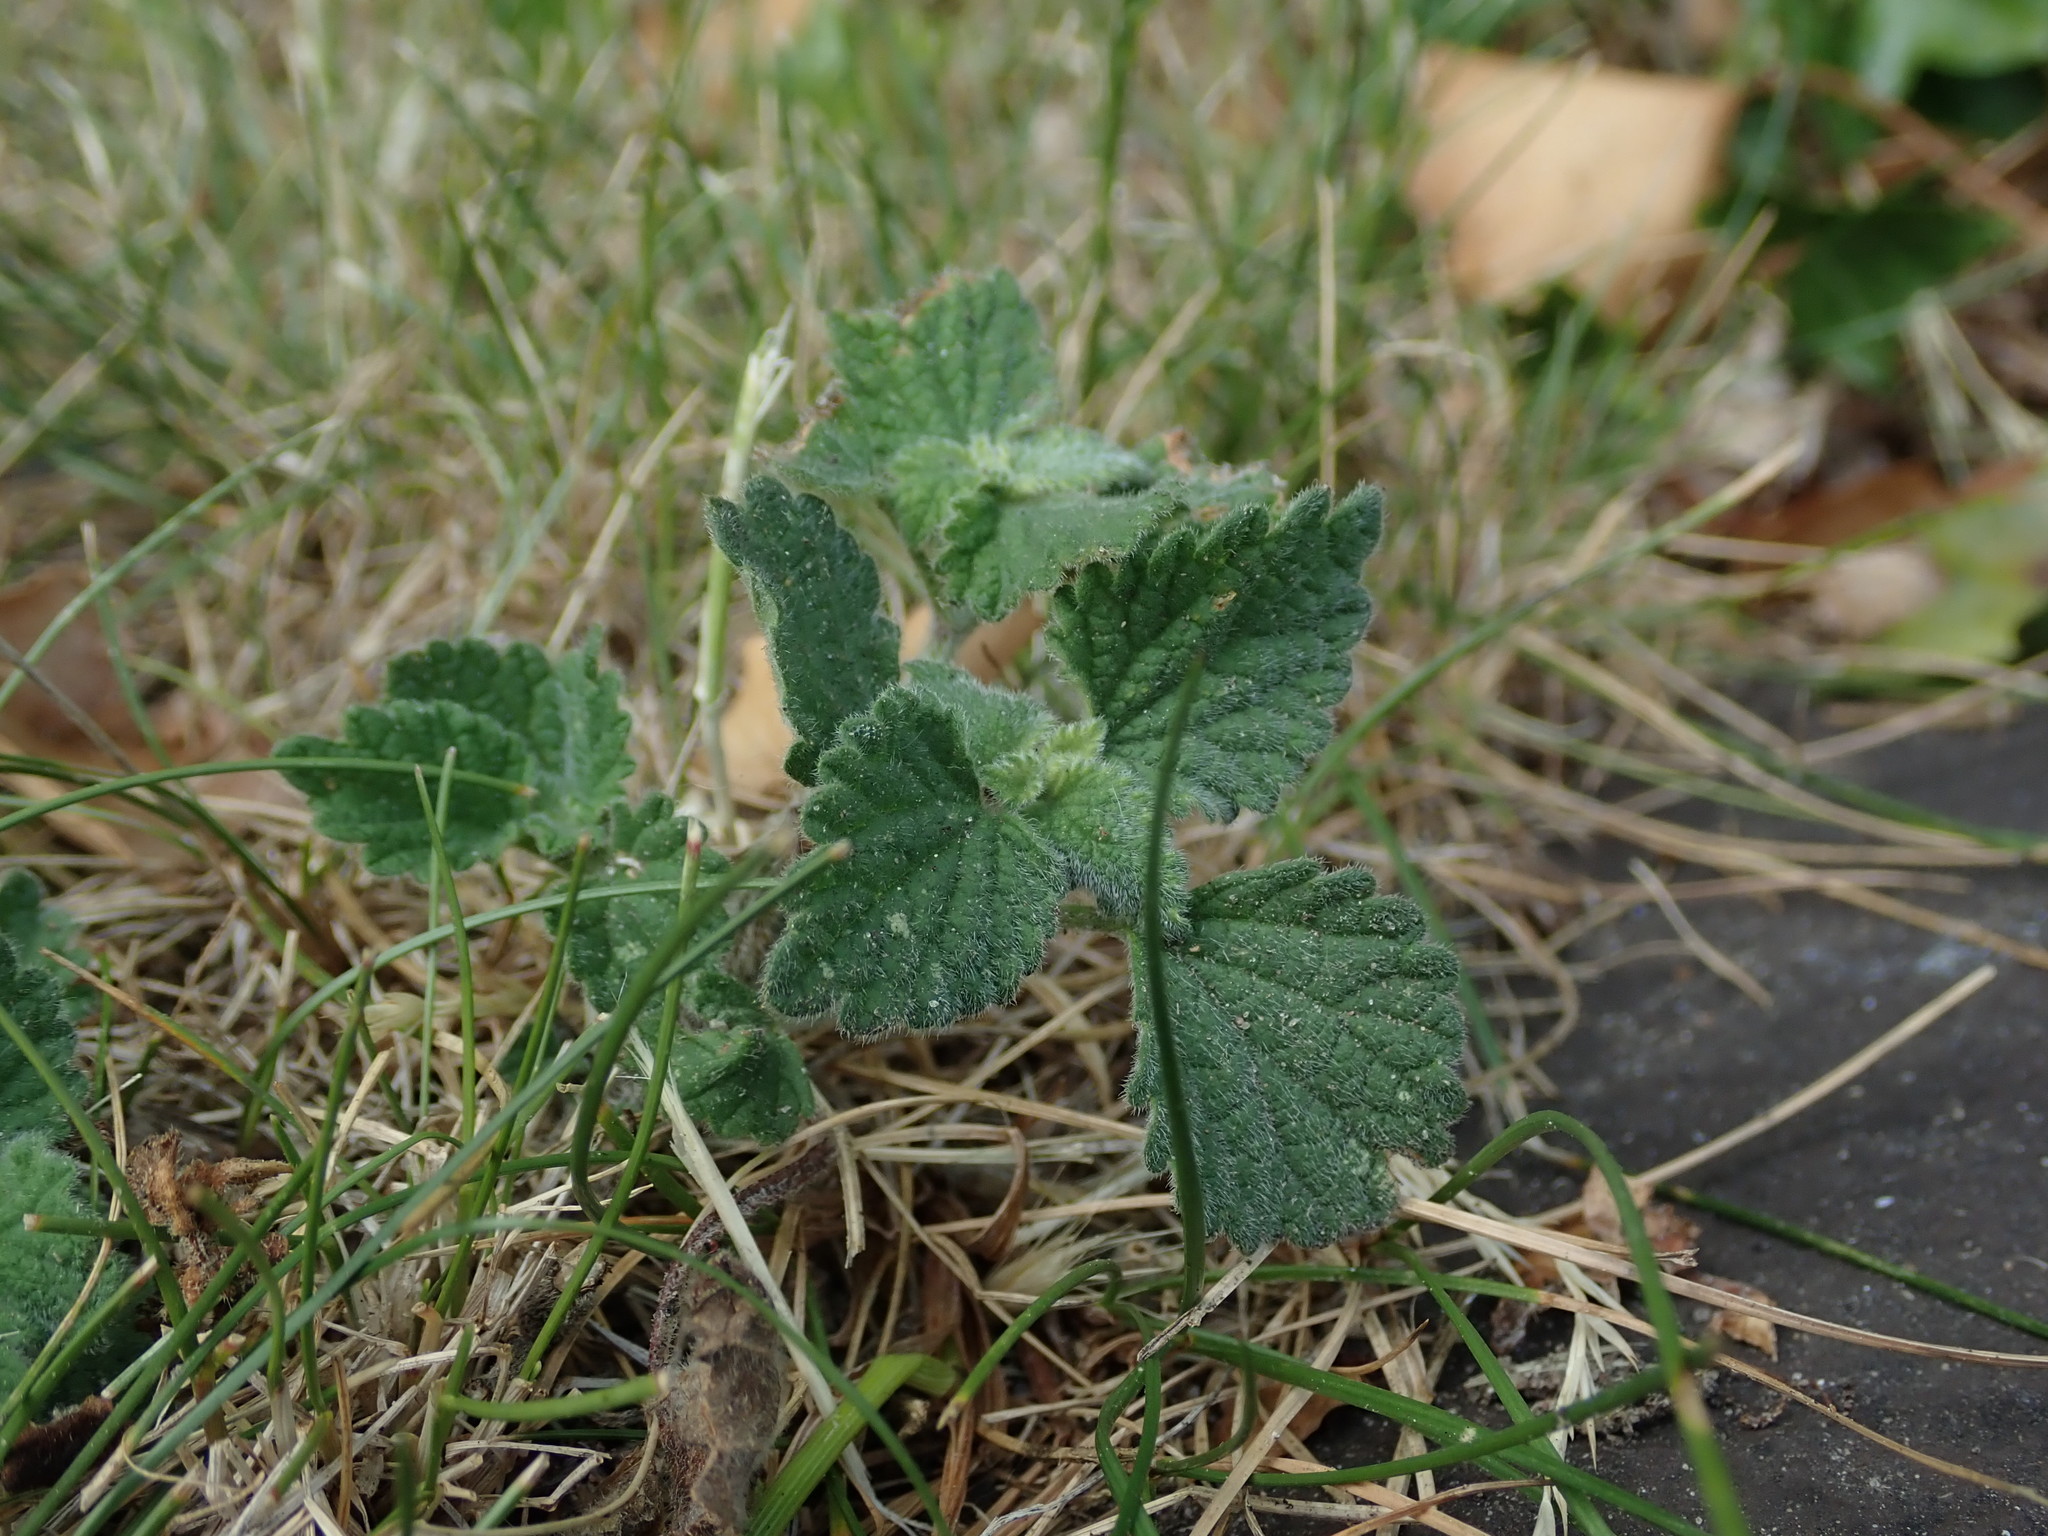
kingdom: Plantae
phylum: Tracheophyta
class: Magnoliopsida
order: Lamiales
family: Lamiaceae
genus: Ballota
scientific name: Ballota nigra
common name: Black horehound
